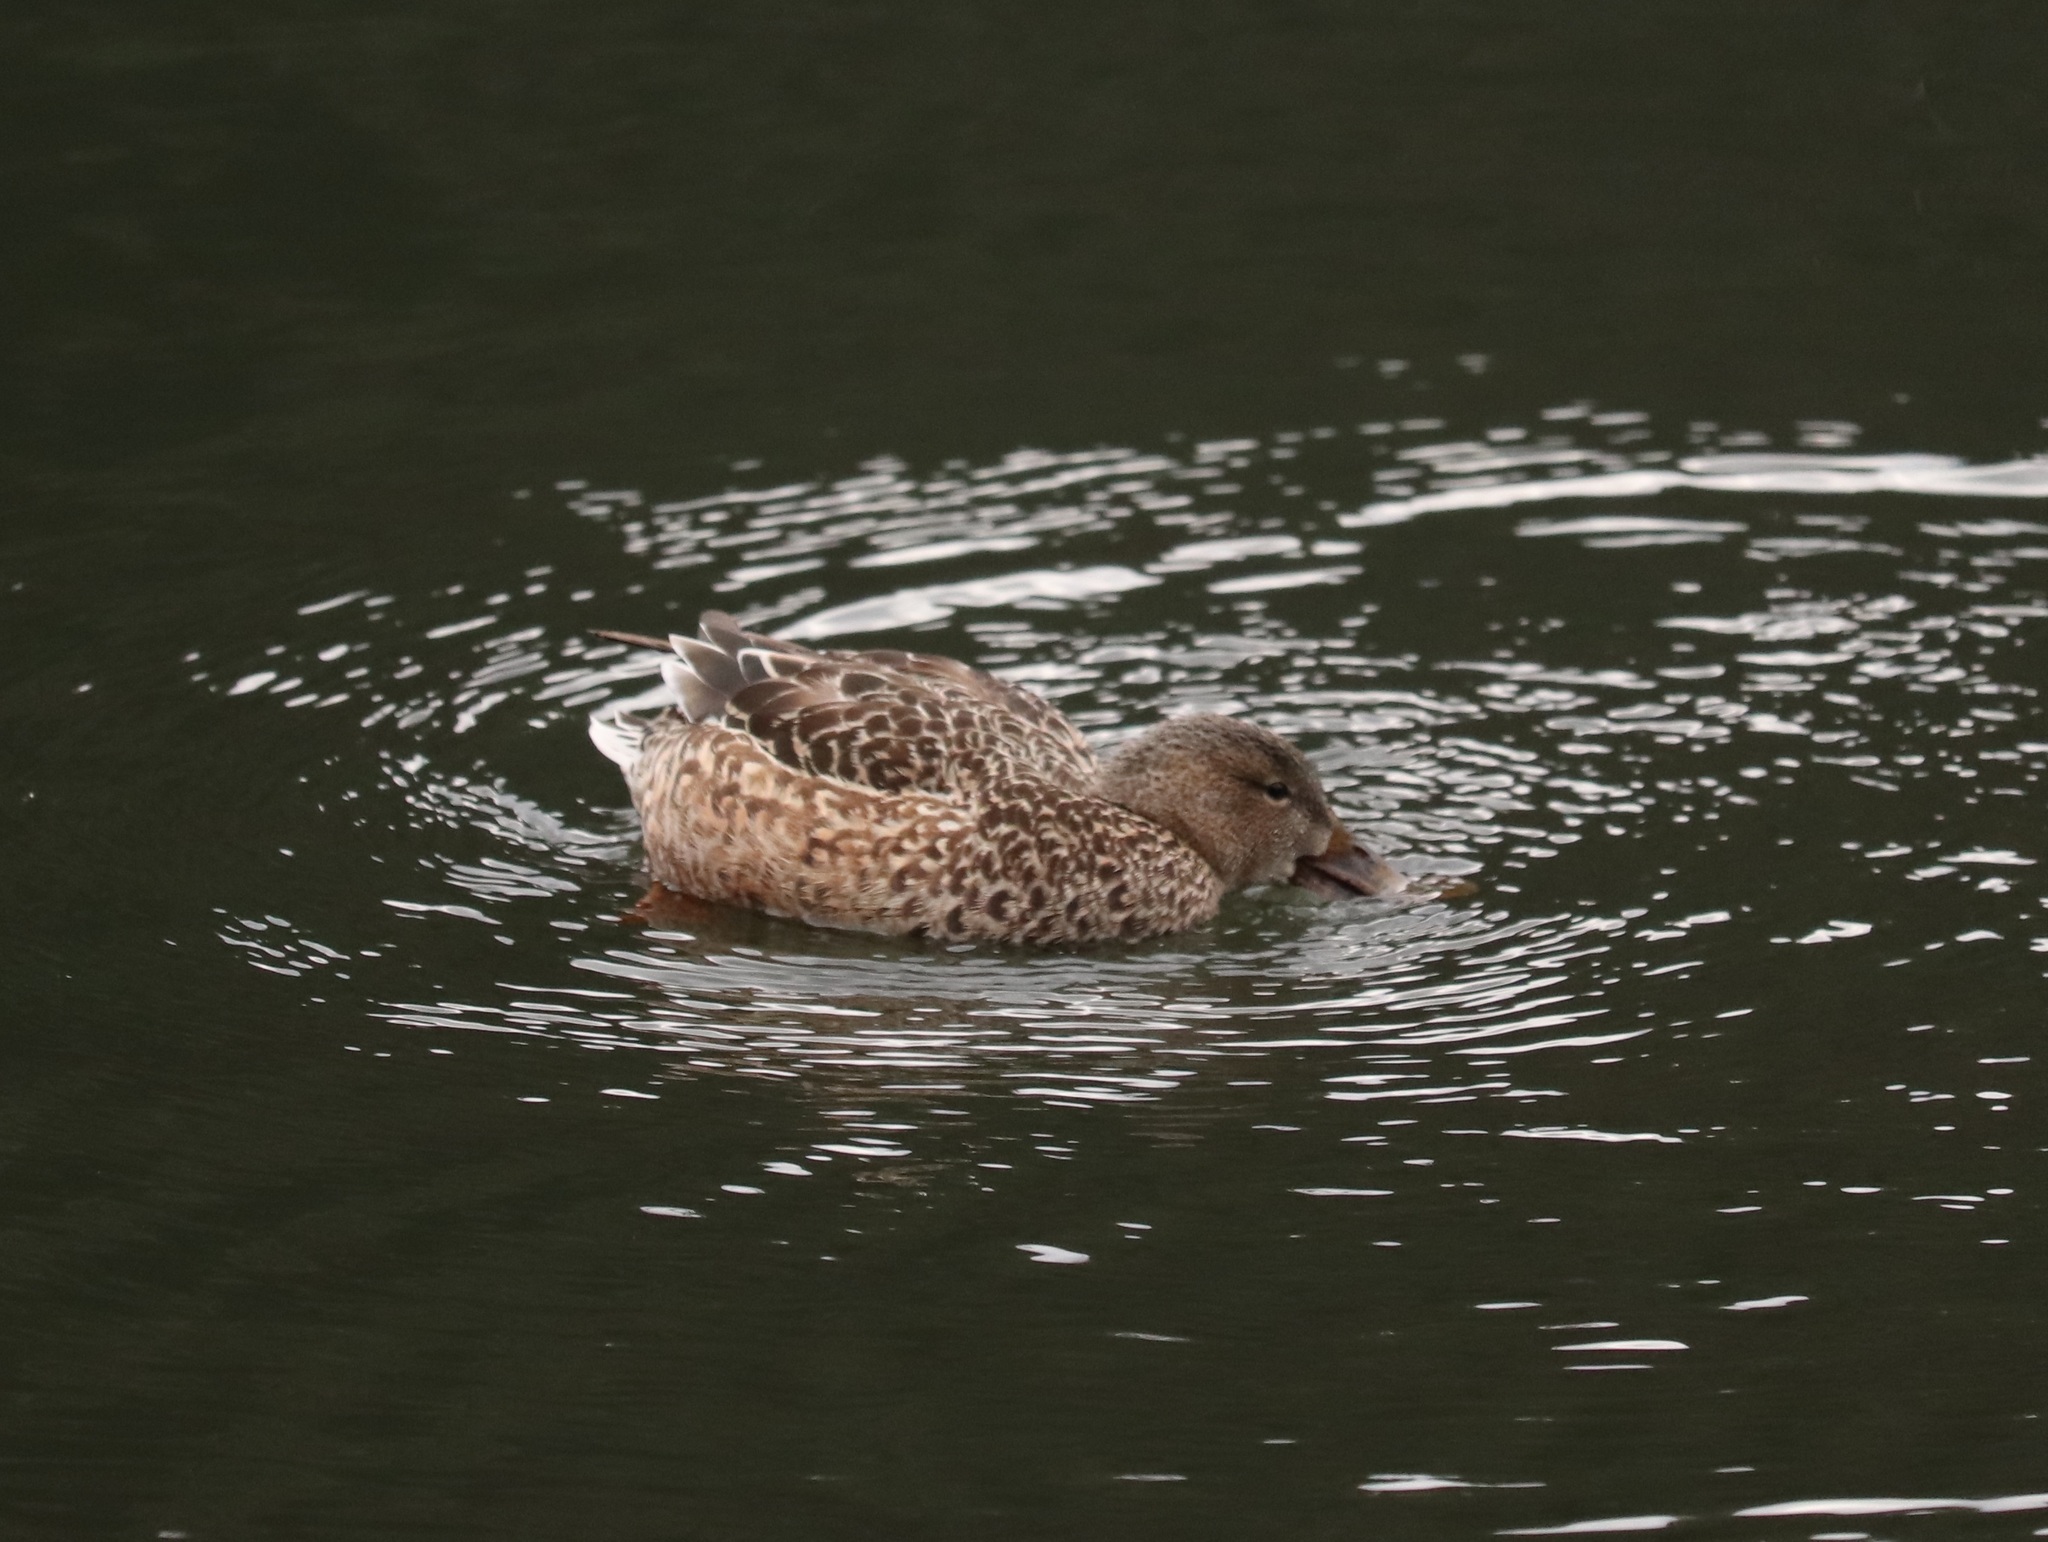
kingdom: Animalia
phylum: Chordata
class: Aves
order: Anseriformes
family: Anatidae
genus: Spatula
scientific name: Spatula clypeata
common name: Northern shoveler
